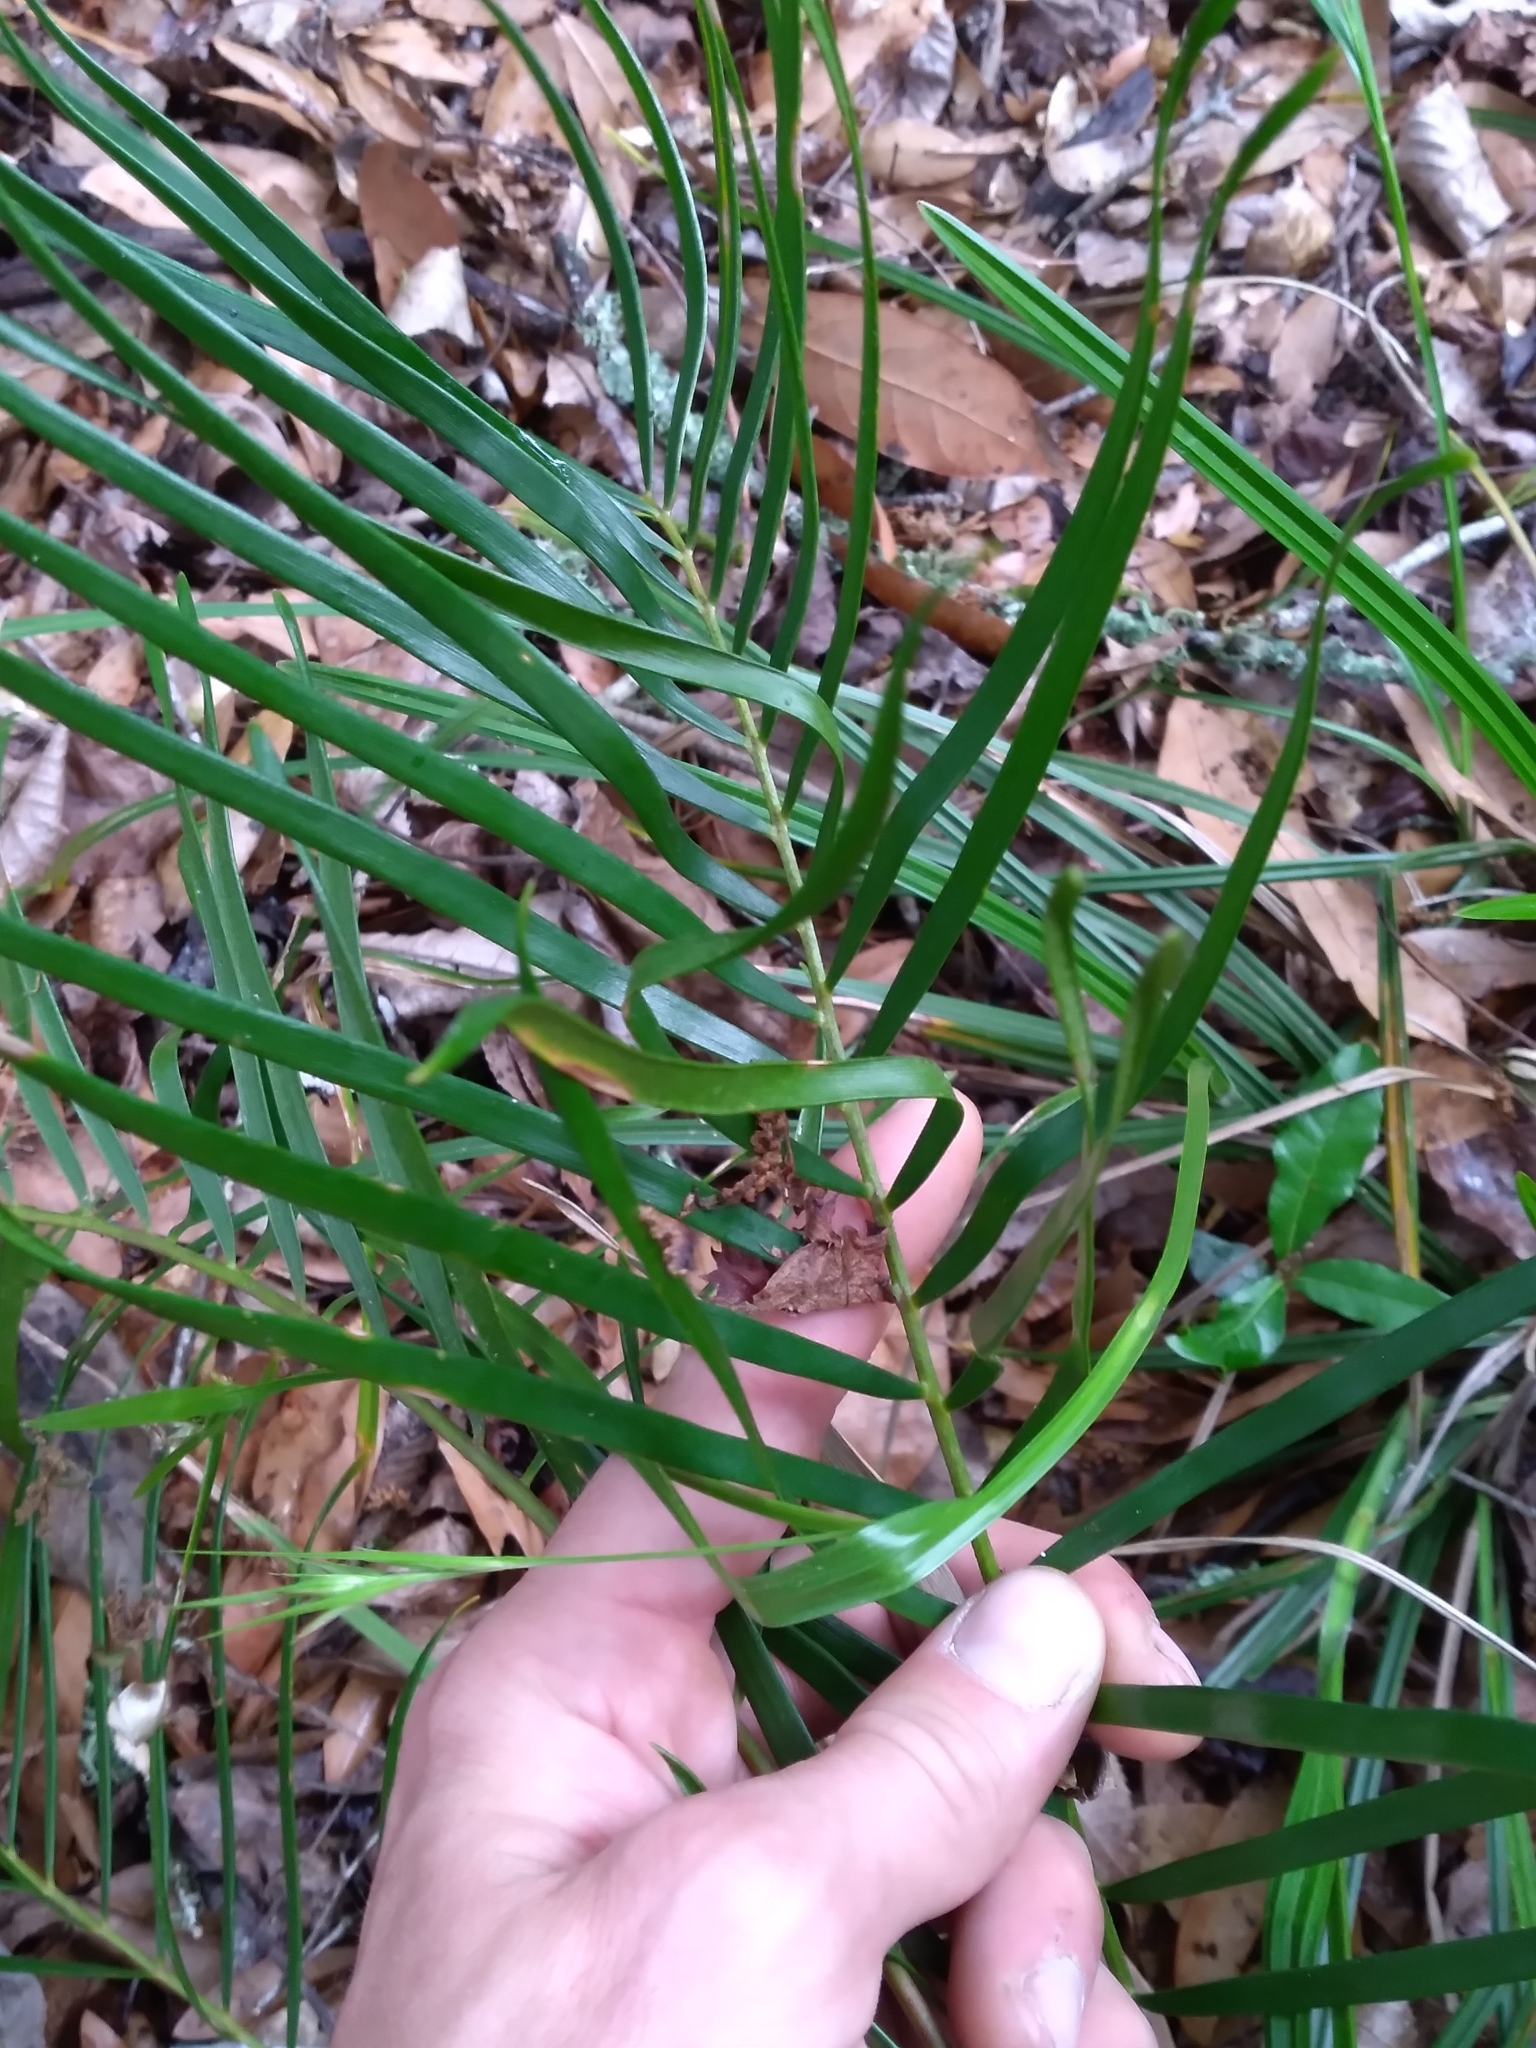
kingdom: Plantae
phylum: Tracheophyta
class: Cycadopsida
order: Cycadales
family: Zamiaceae
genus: Zamia
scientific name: Zamia integrifolia
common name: Florida arrowroot
